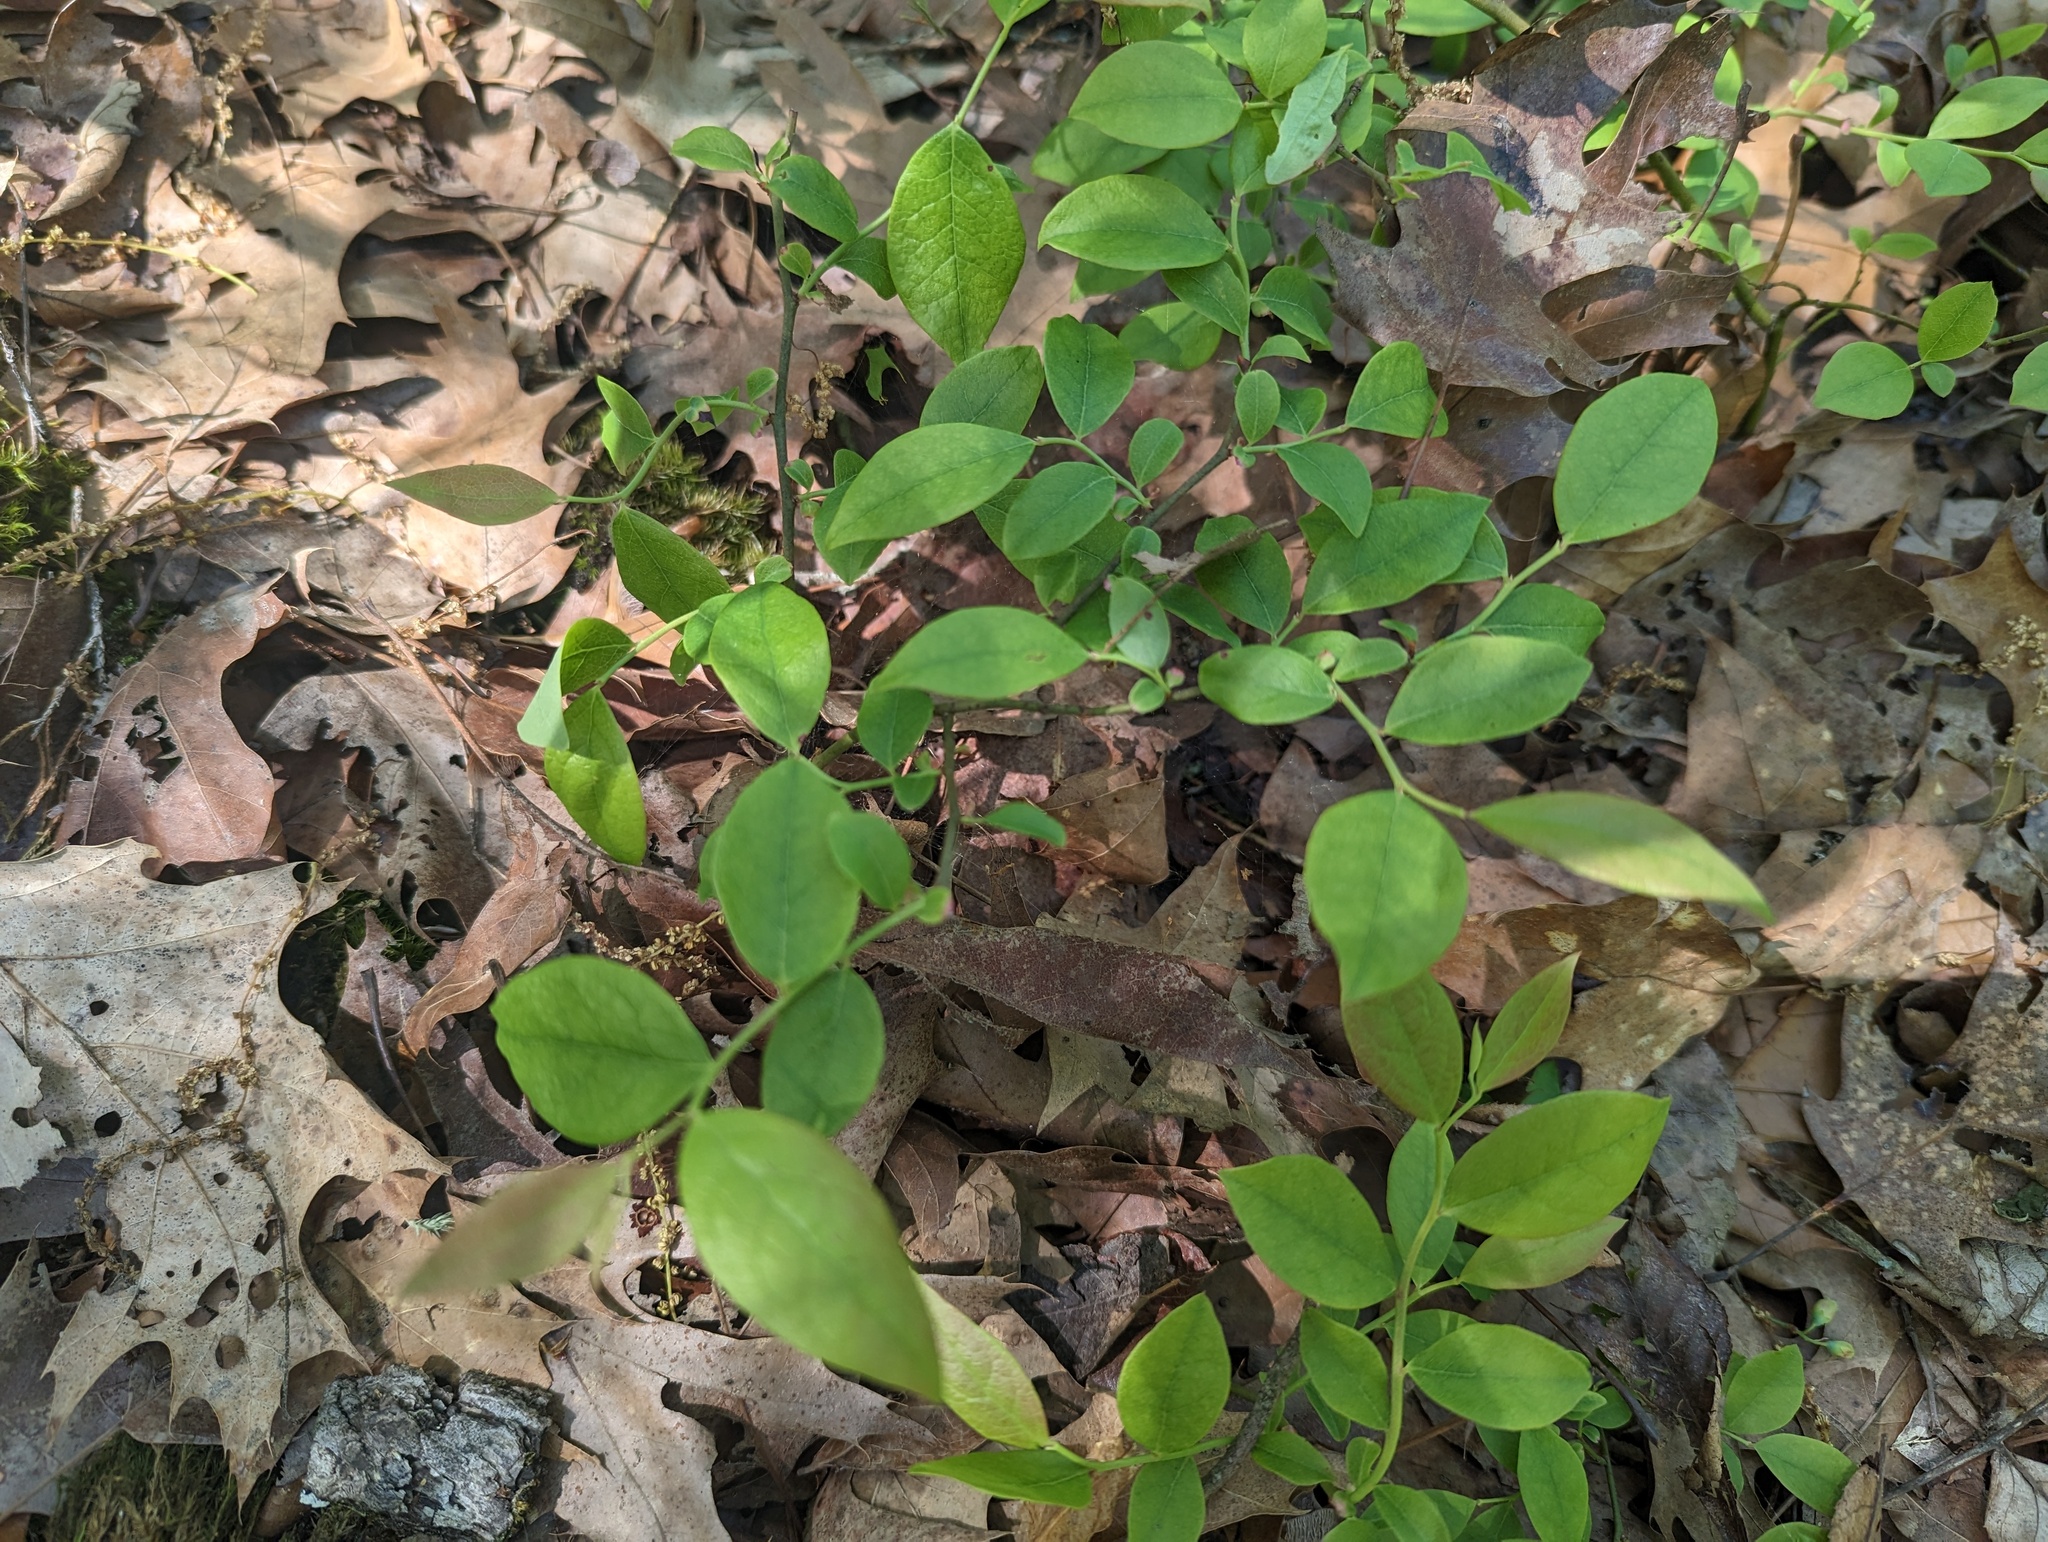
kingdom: Plantae
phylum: Tracheophyta
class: Magnoliopsida
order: Ericales
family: Ericaceae
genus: Vaccinium
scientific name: Vaccinium pallidum
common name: Blue ridge blueberry
